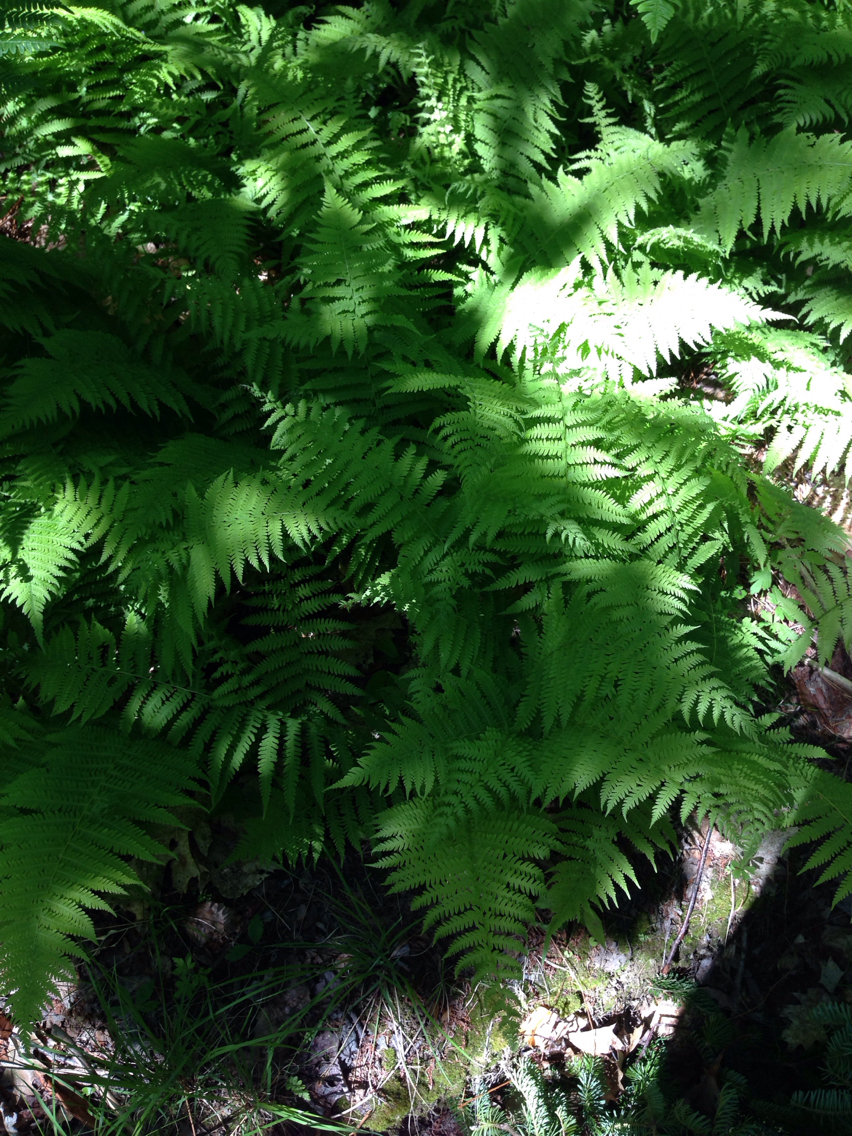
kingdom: Plantae
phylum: Tracheophyta
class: Polypodiopsida
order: Polypodiales
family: Thelypteridaceae
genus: Amauropelta
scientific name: Amauropelta noveboracensis
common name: New york fern
